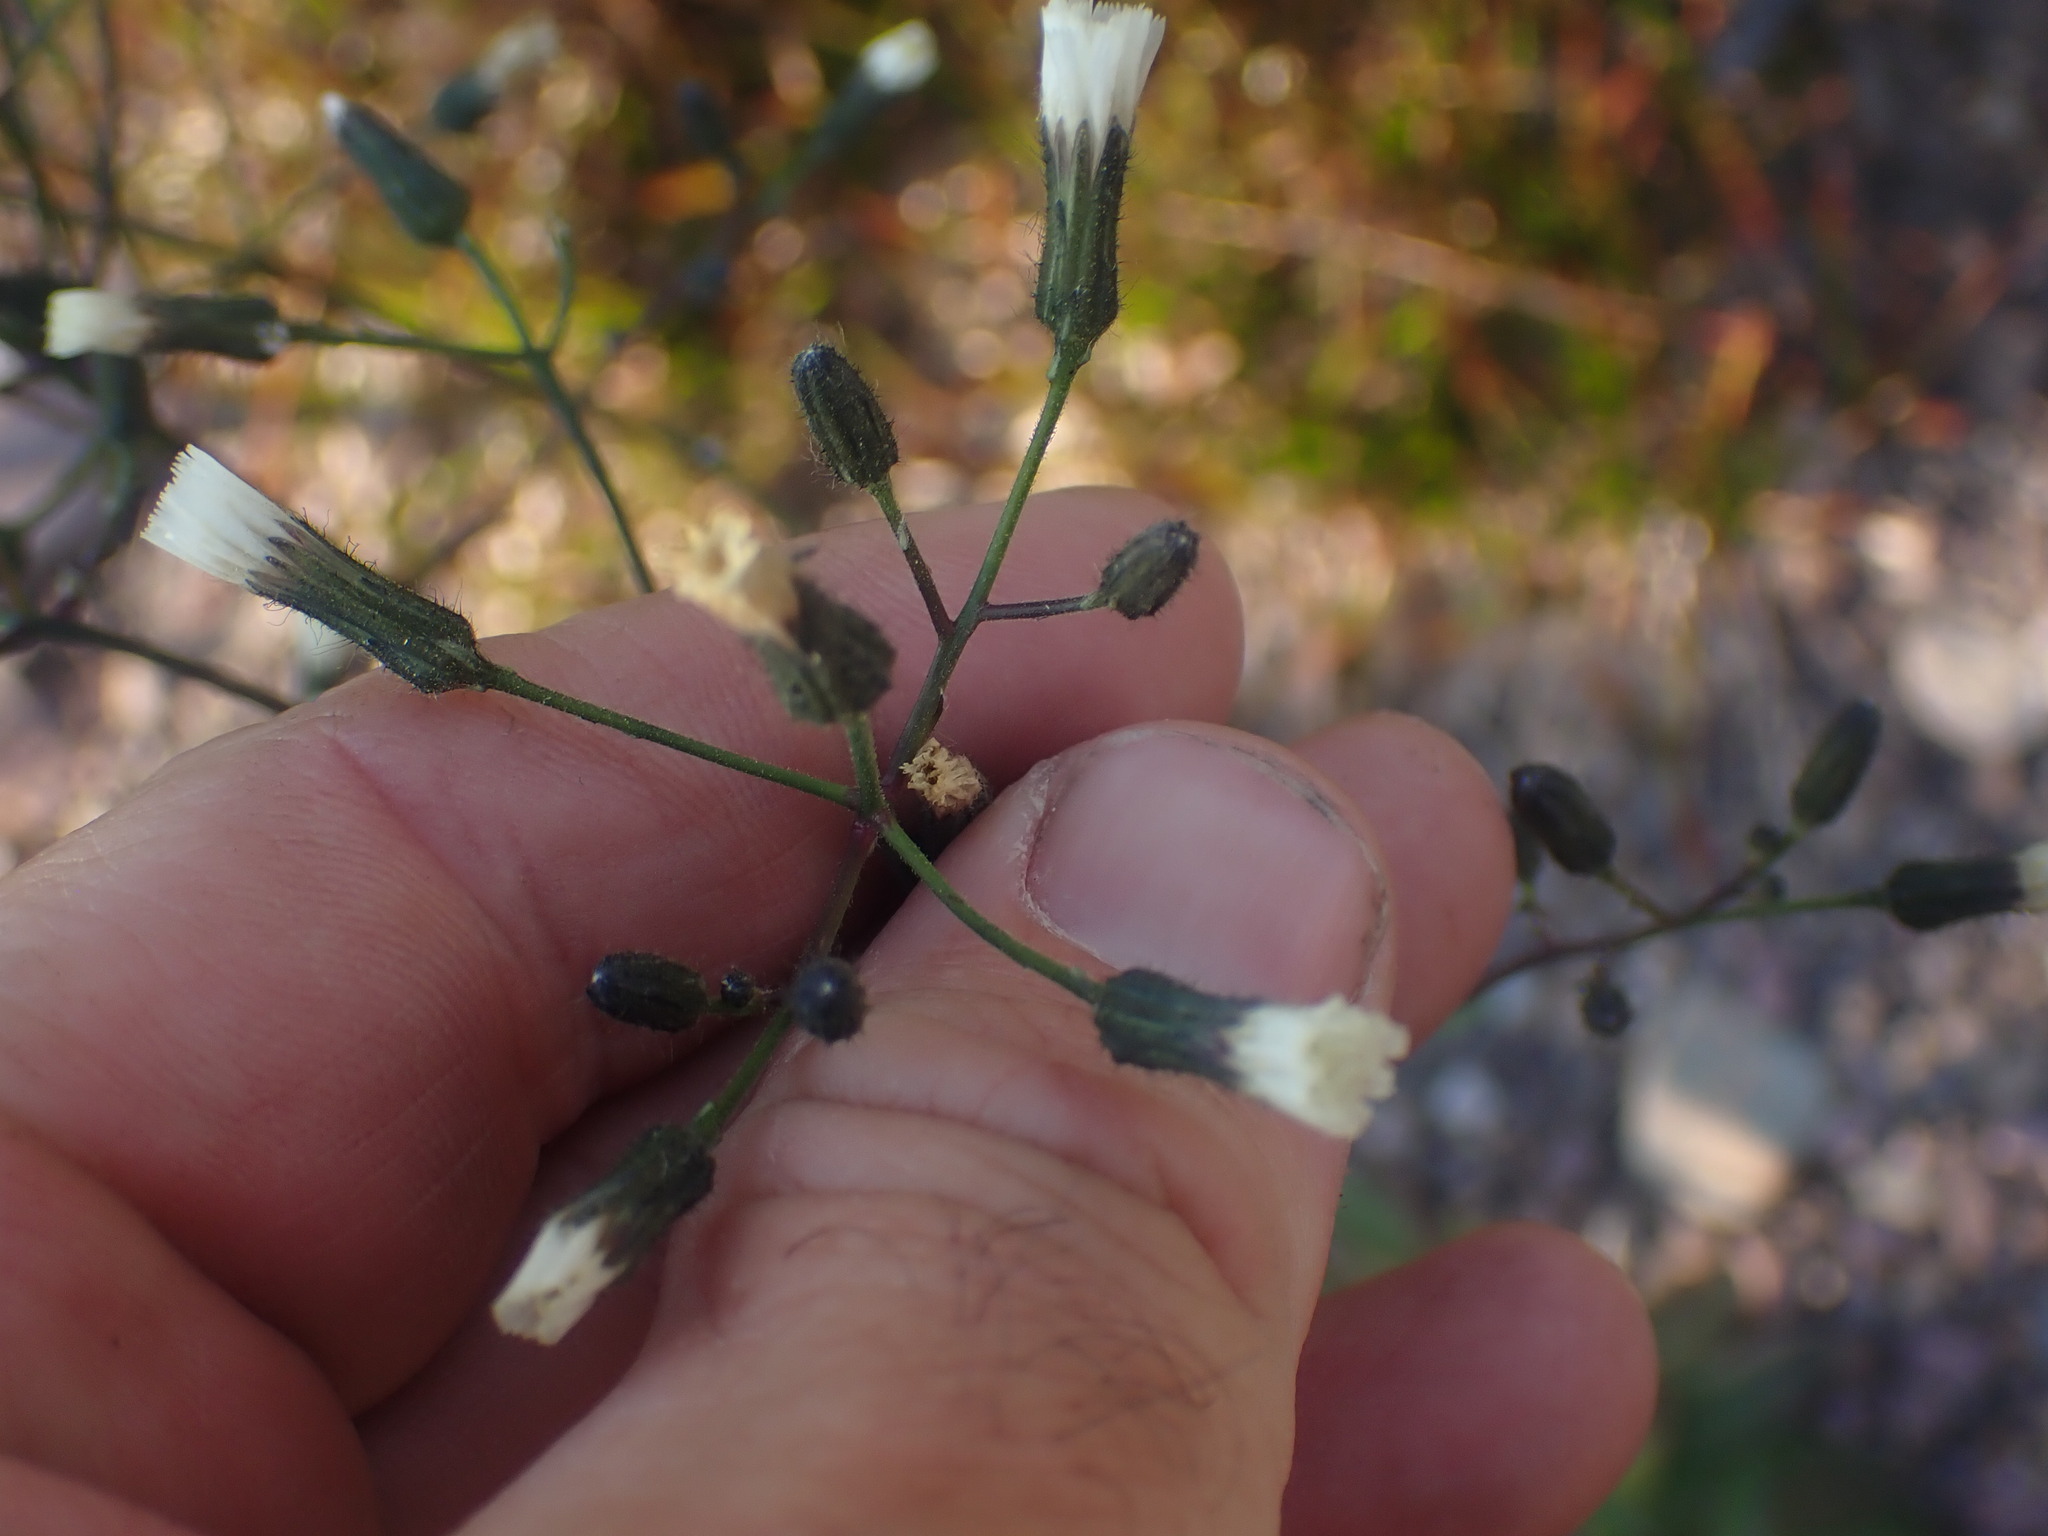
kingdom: Plantae
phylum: Tracheophyta
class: Magnoliopsida
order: Asterales
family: Asteraceae
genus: Hieracium
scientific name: Hieracium albiflorum
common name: White hawkweed
